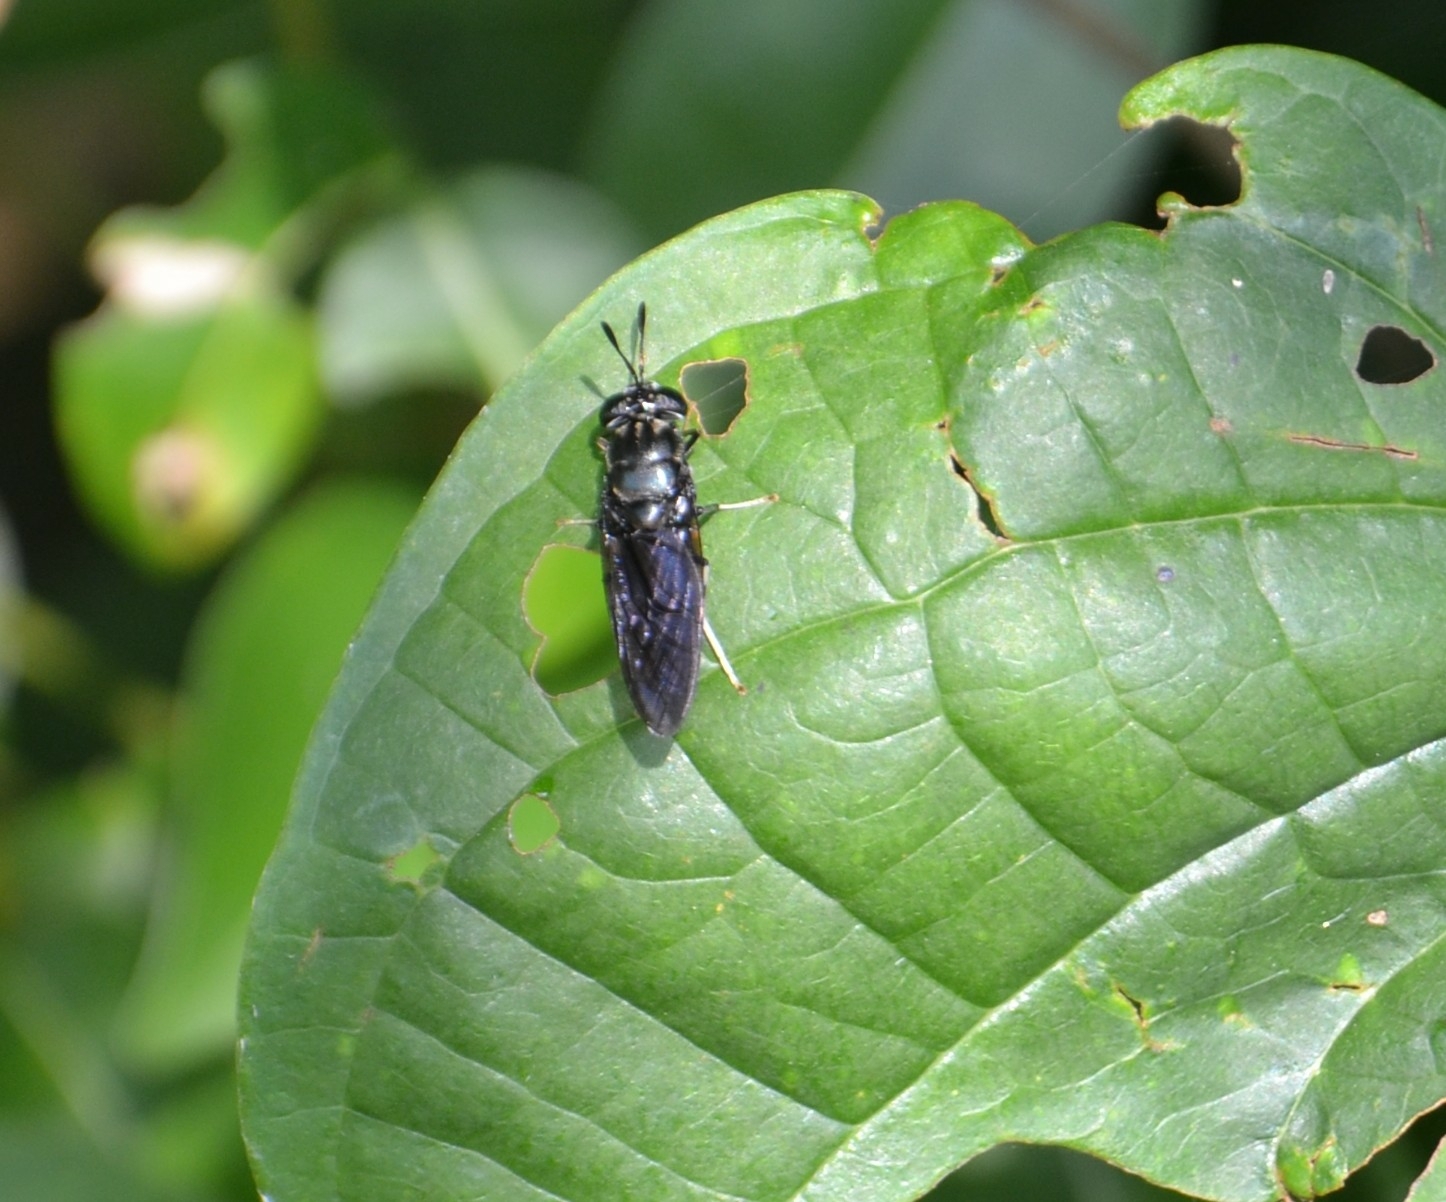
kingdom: Animalia
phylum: Arthropoda
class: Insecta
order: Diptera
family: Stratiomyidae
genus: Hermetia
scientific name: Hermetia illucens
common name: Black soldier fly
